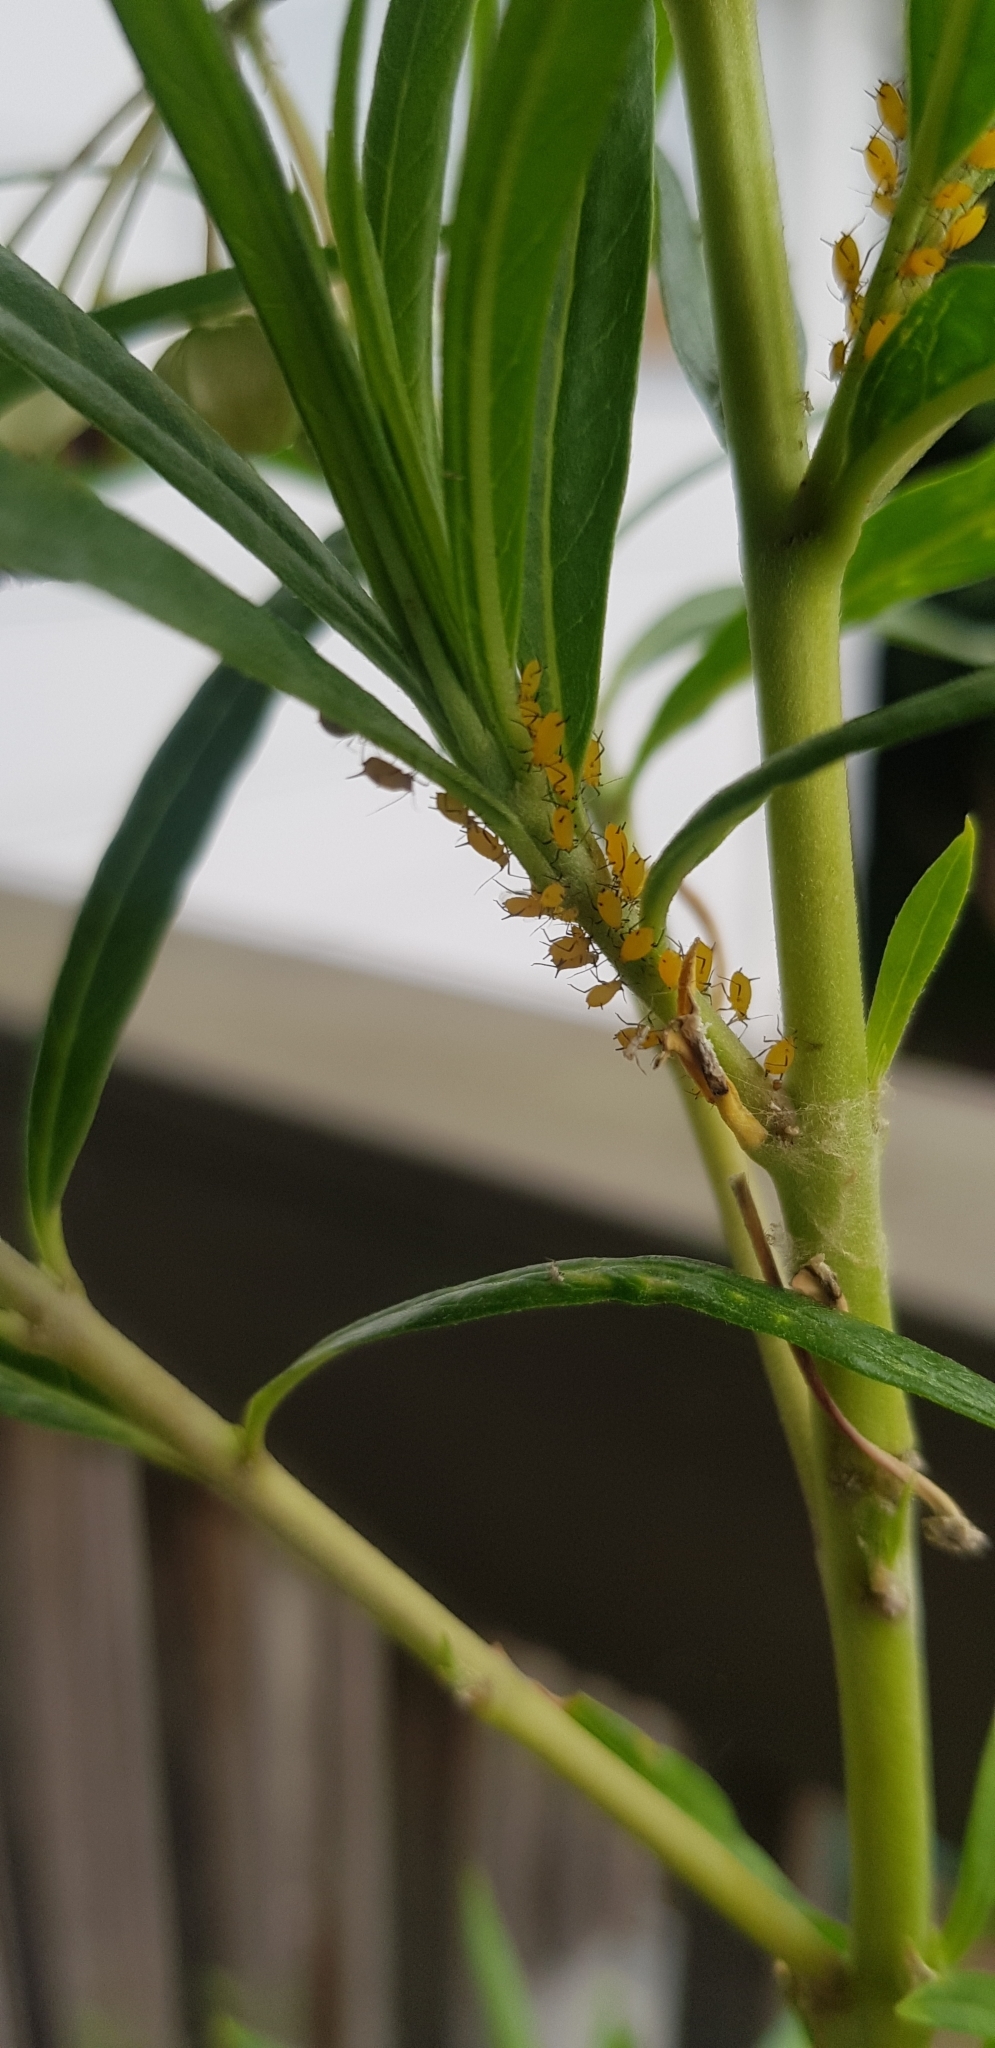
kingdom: Animalia
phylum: Arthropoda
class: Insecta
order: Hemiptera
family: Aphididae
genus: Aphis
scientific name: Aphis nerii
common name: Oleander aphid
